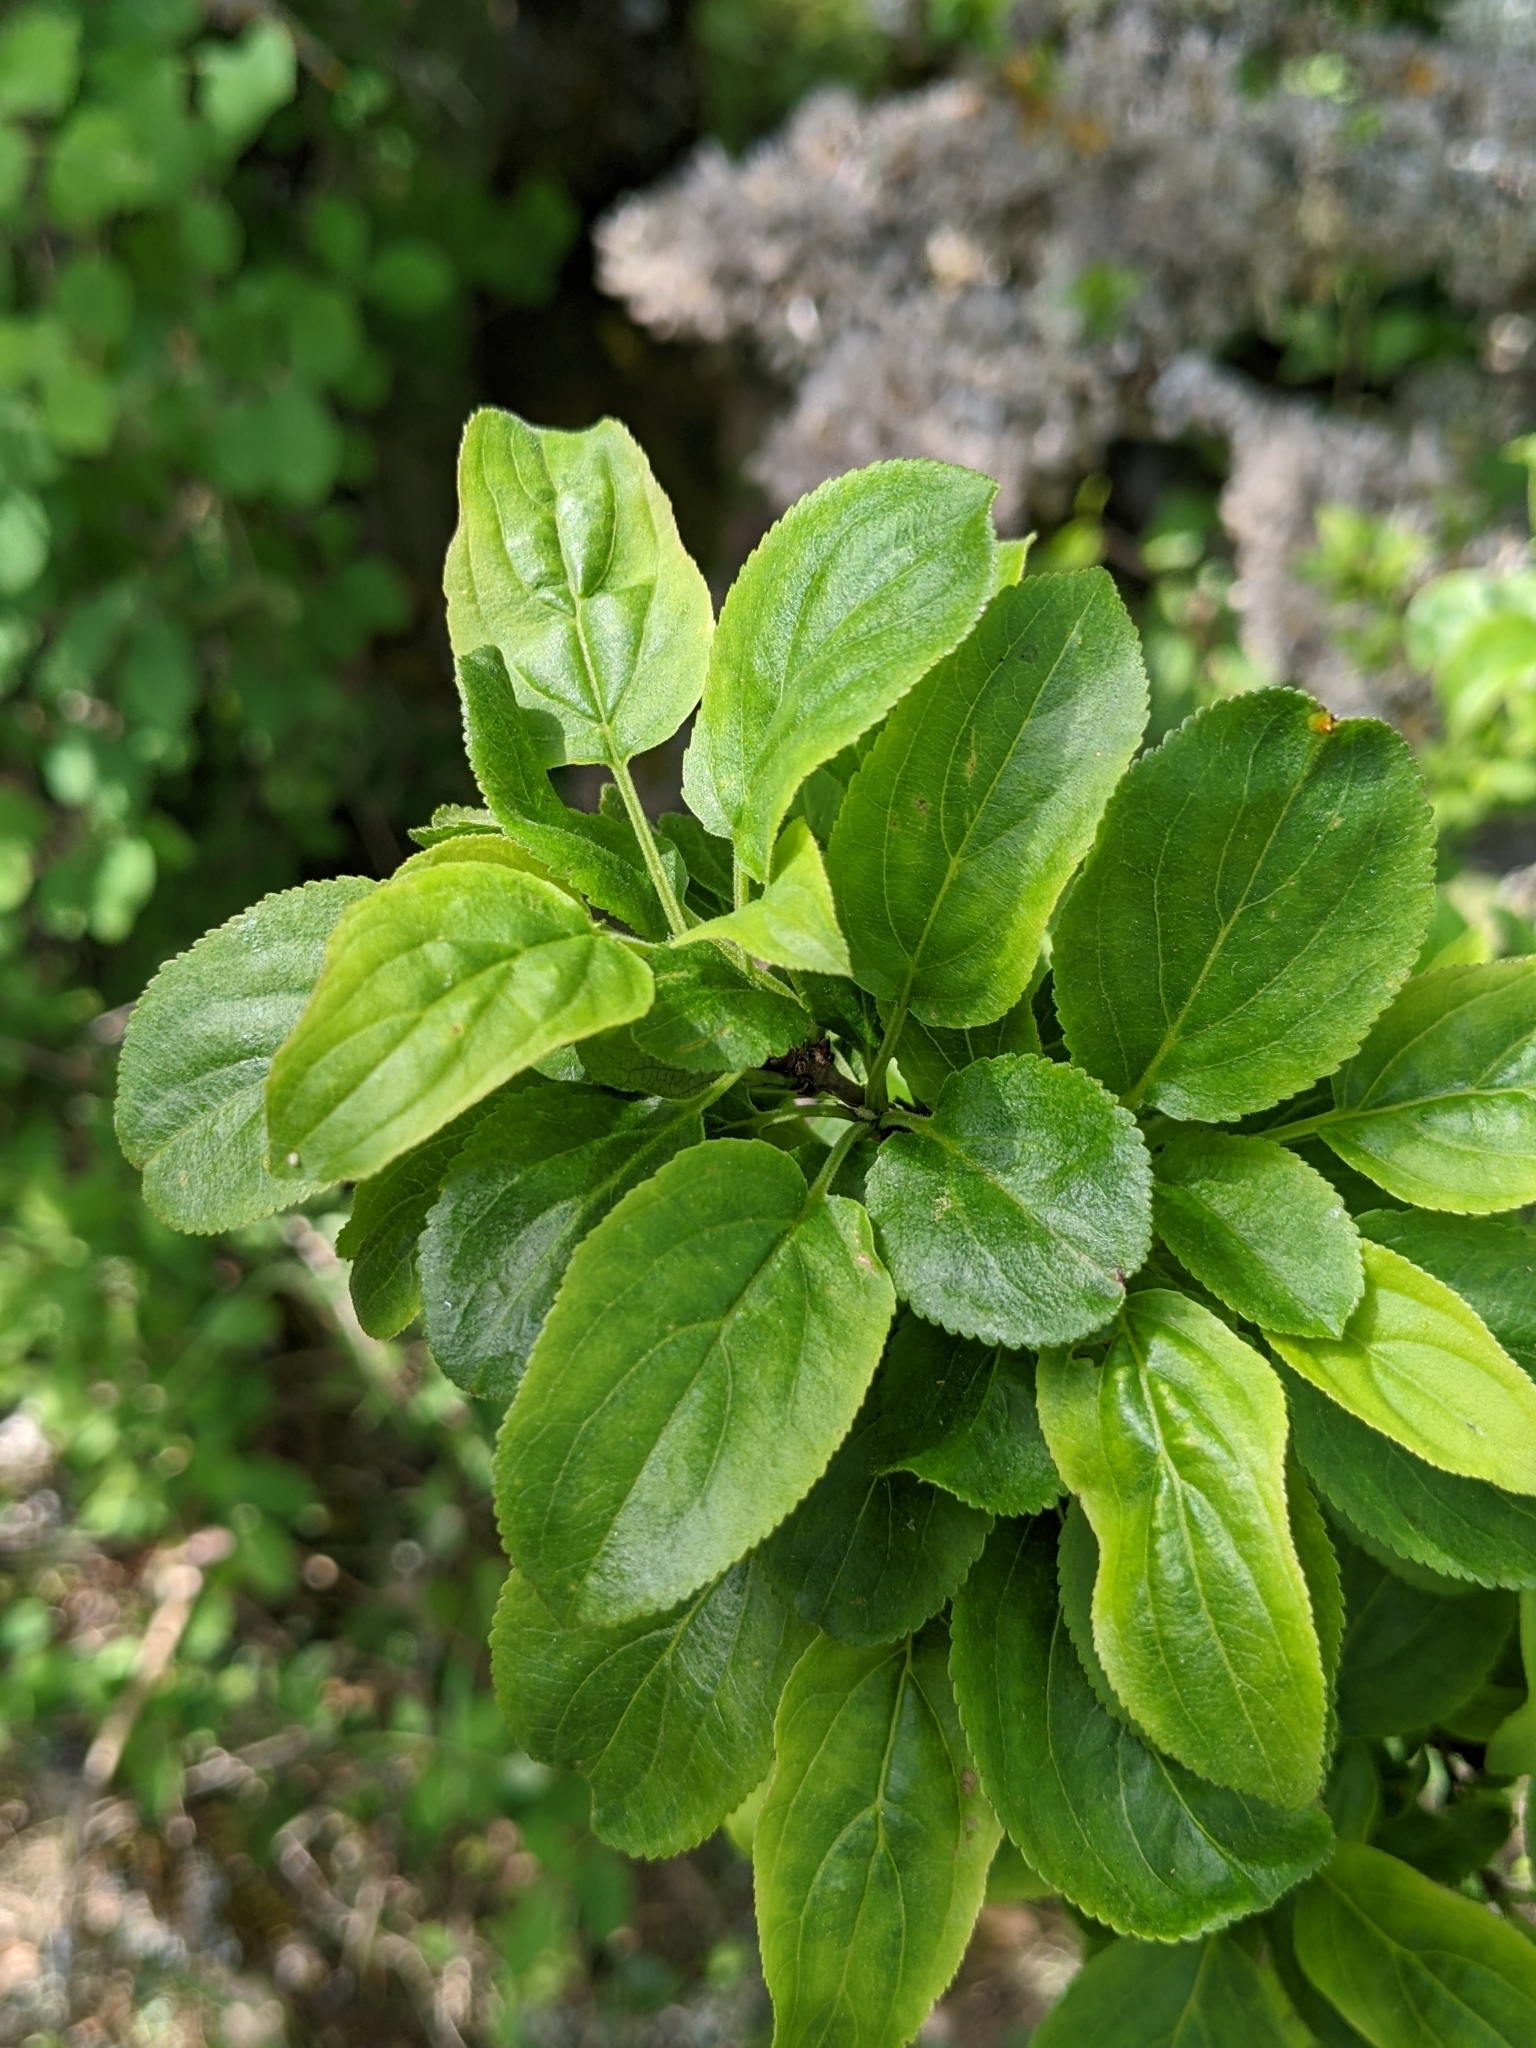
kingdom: Plantae
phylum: Tracheophyta
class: Magnoliopsida
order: Rosales
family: Rhamnaceae
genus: Rhamnus
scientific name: Rhamnus cathartica
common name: Common buckthorn
